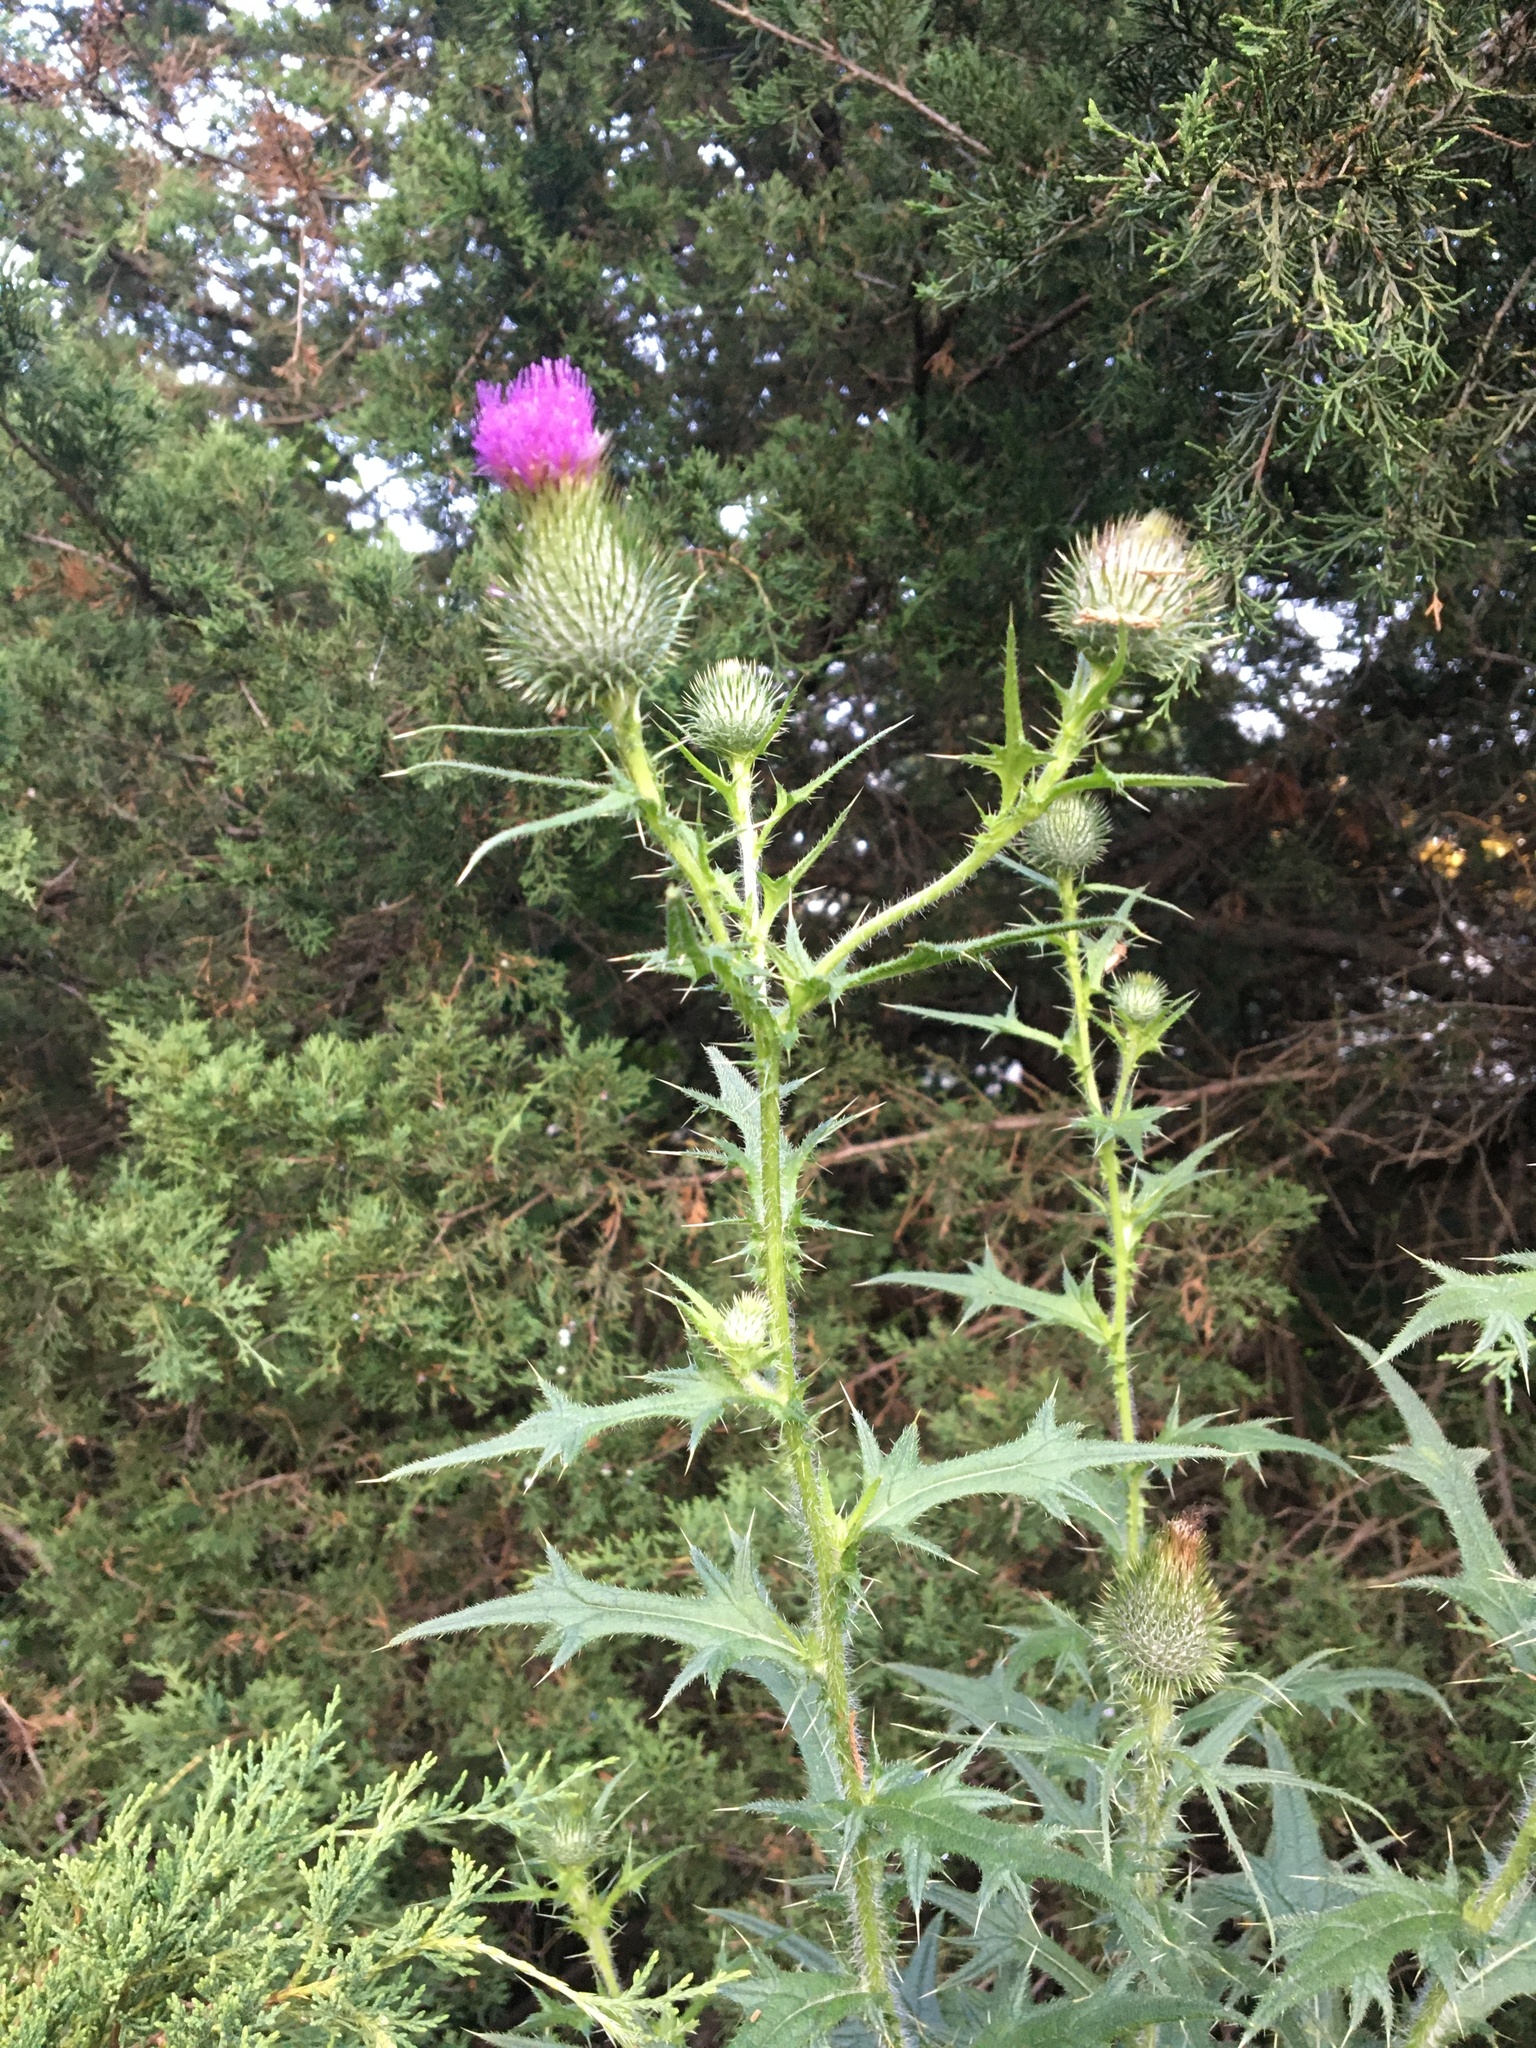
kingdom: Plantae
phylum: Tracheophyta
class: Magnoliopsida
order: Asterales
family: Asteraceae
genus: Cirsium
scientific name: Cirsium vulgare
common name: Bull thistle
